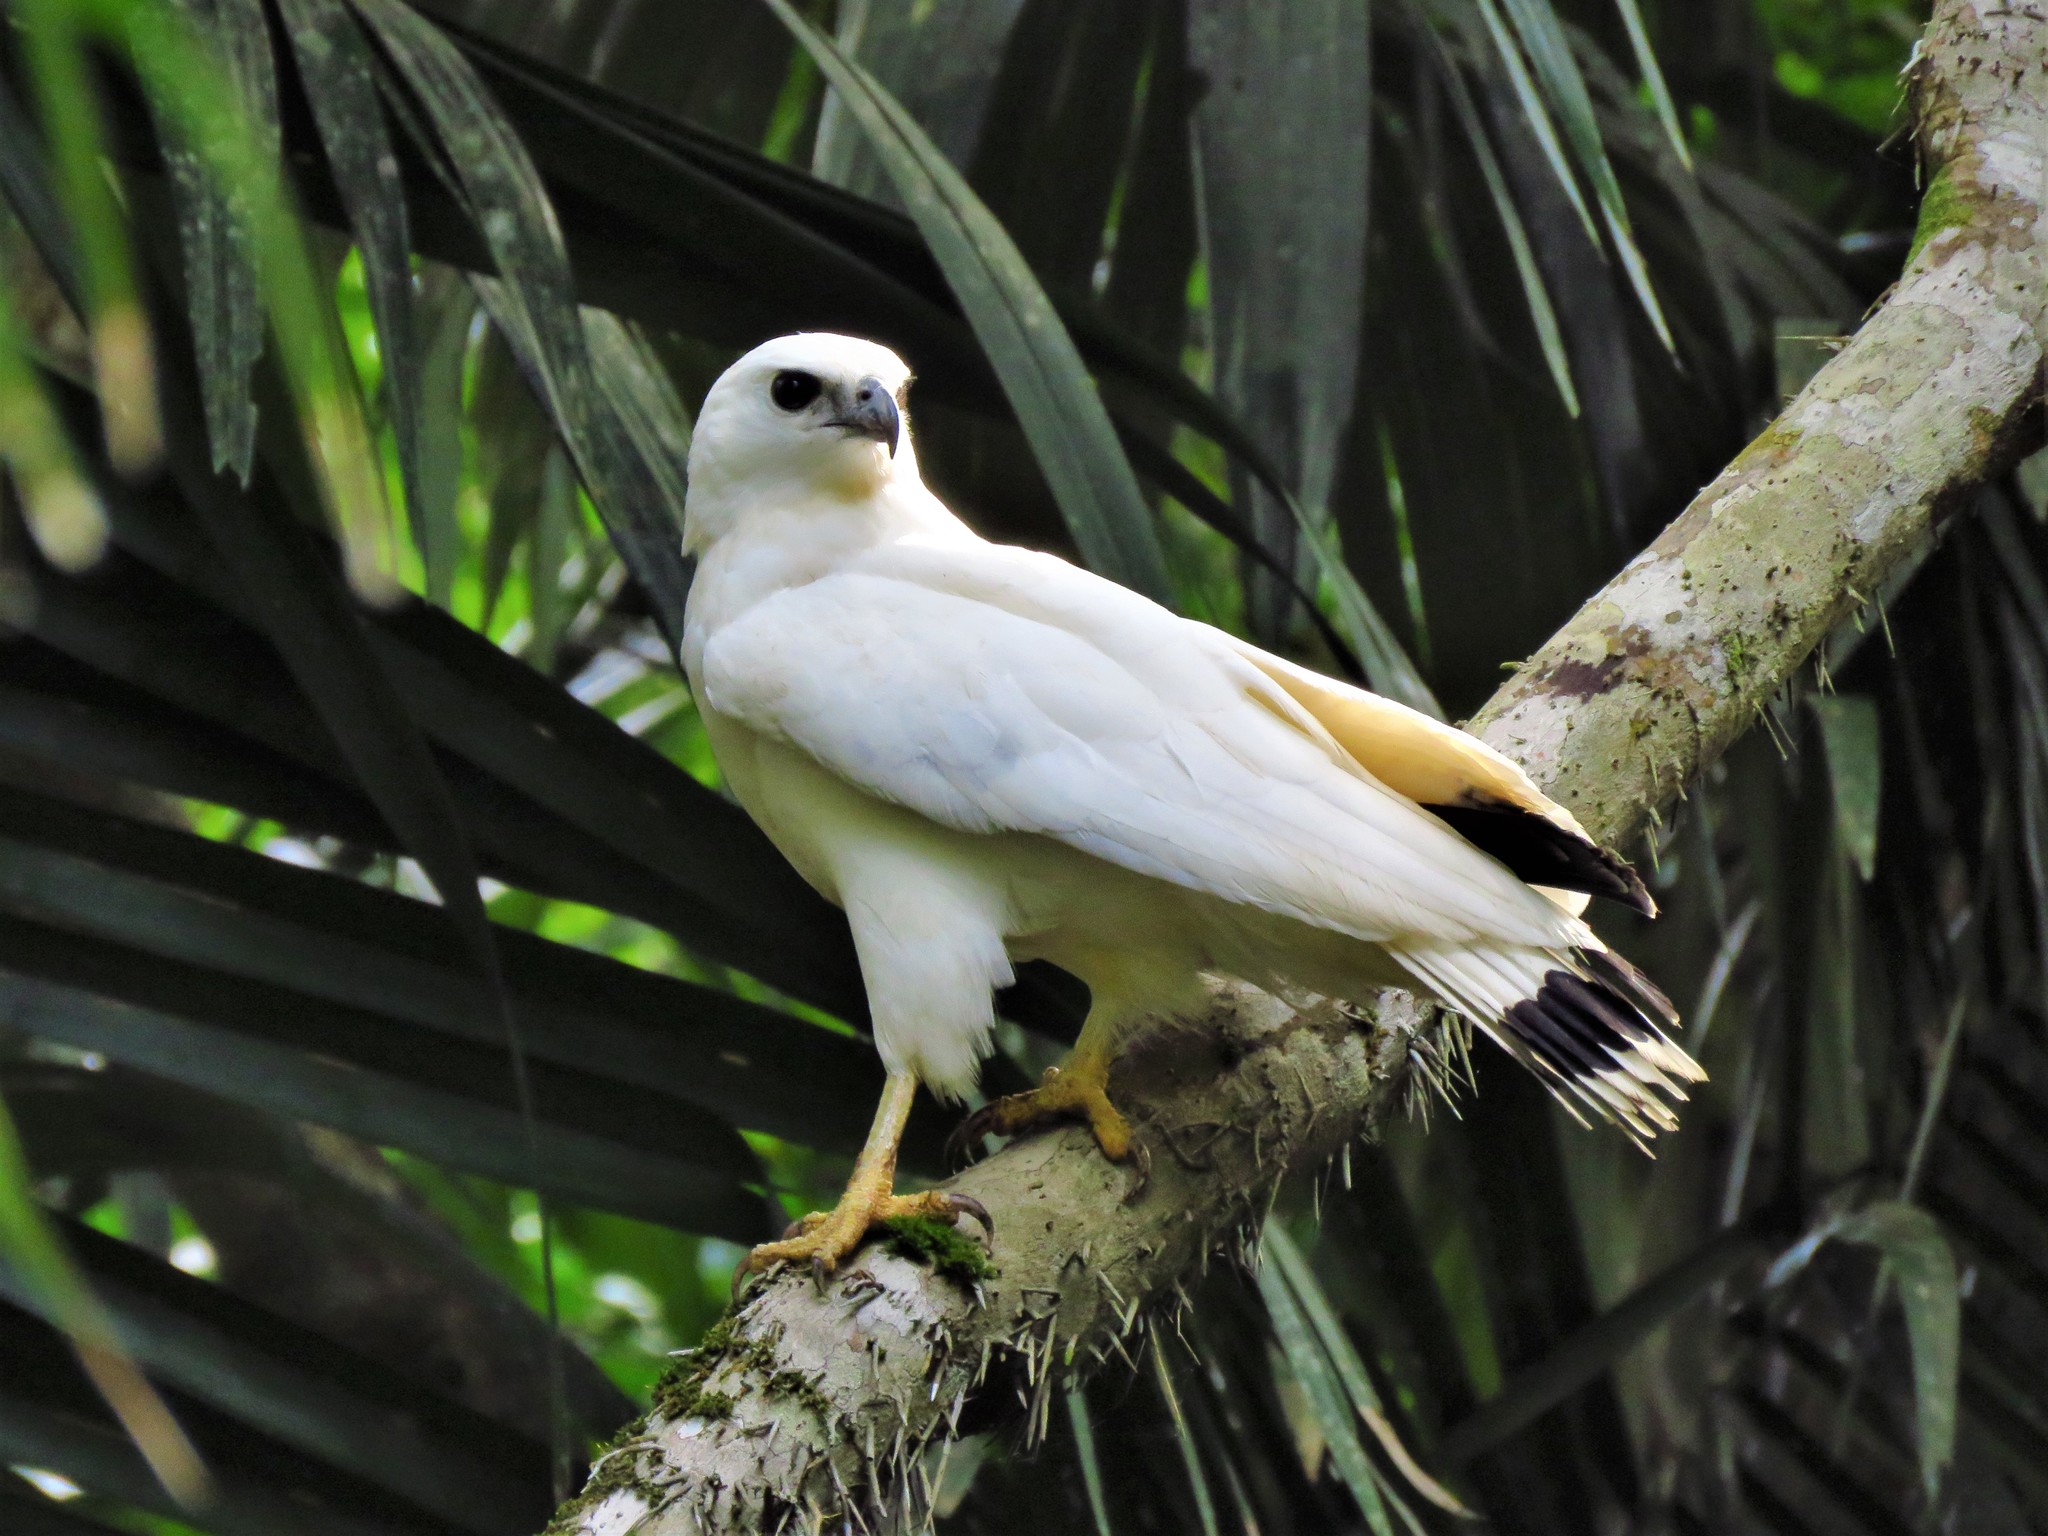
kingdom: Animalia
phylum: Chordata
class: Aves
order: Accipitriformes
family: Accipitridae
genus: Leucopternis
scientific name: Leucopternis albicollis
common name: White hawk
